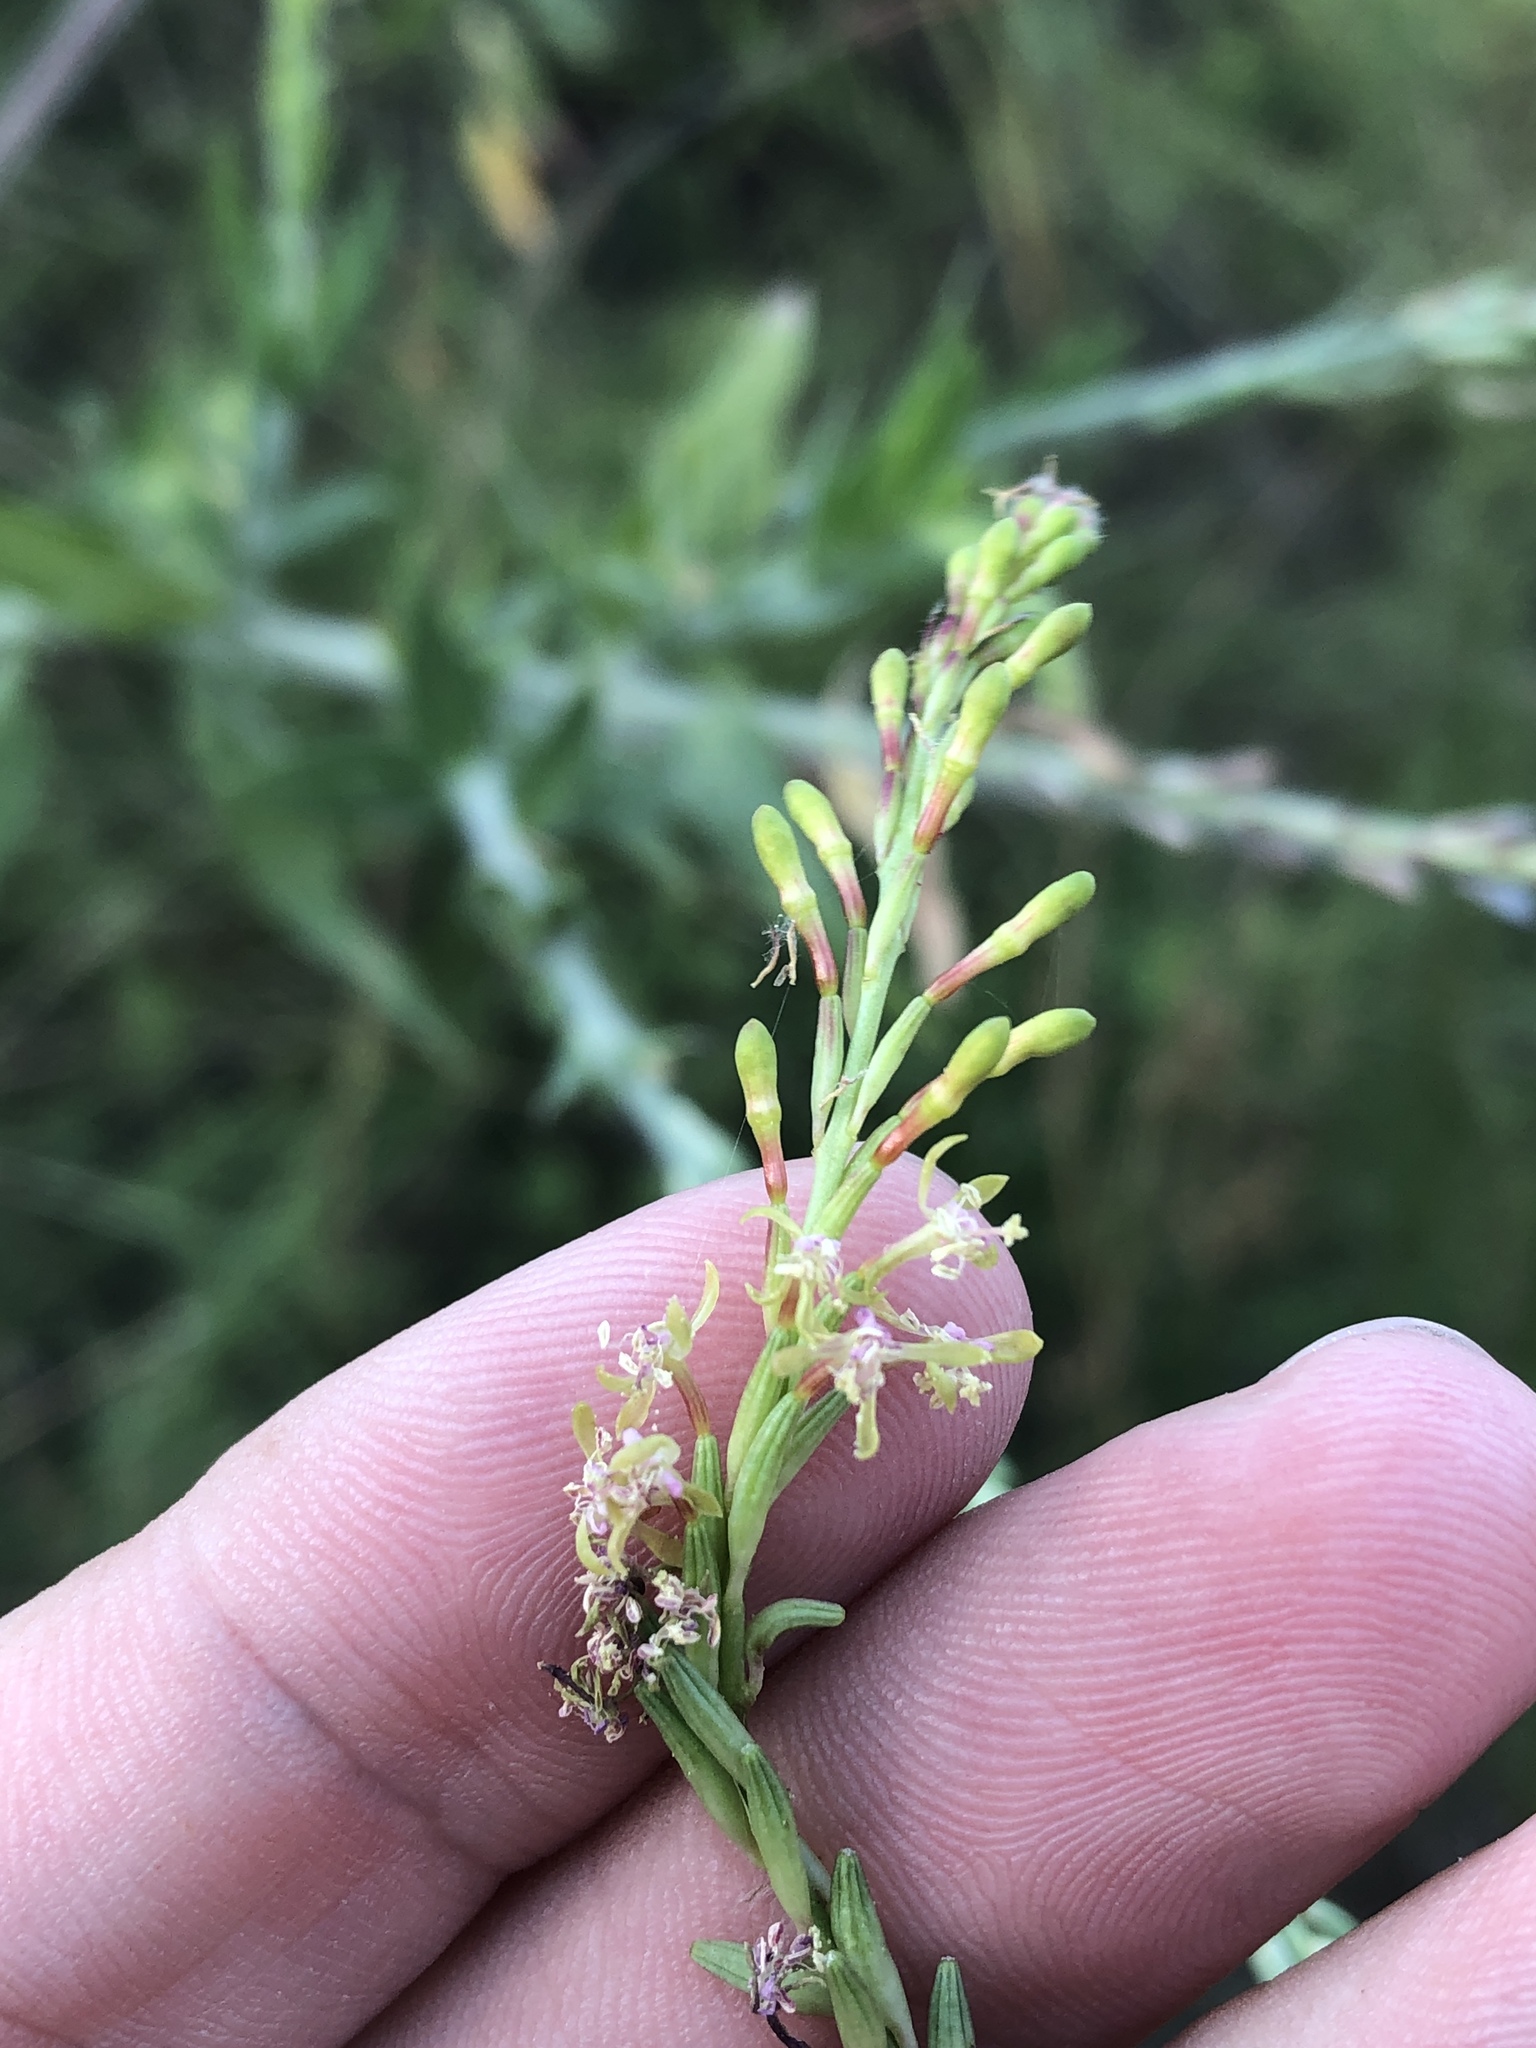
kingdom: Plantae
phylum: Tracheophyta
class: Magnoliopsida
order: Myrtales
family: Onagraceae
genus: Oenothera
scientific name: Oenothera curtiflora
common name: Velvetweed
